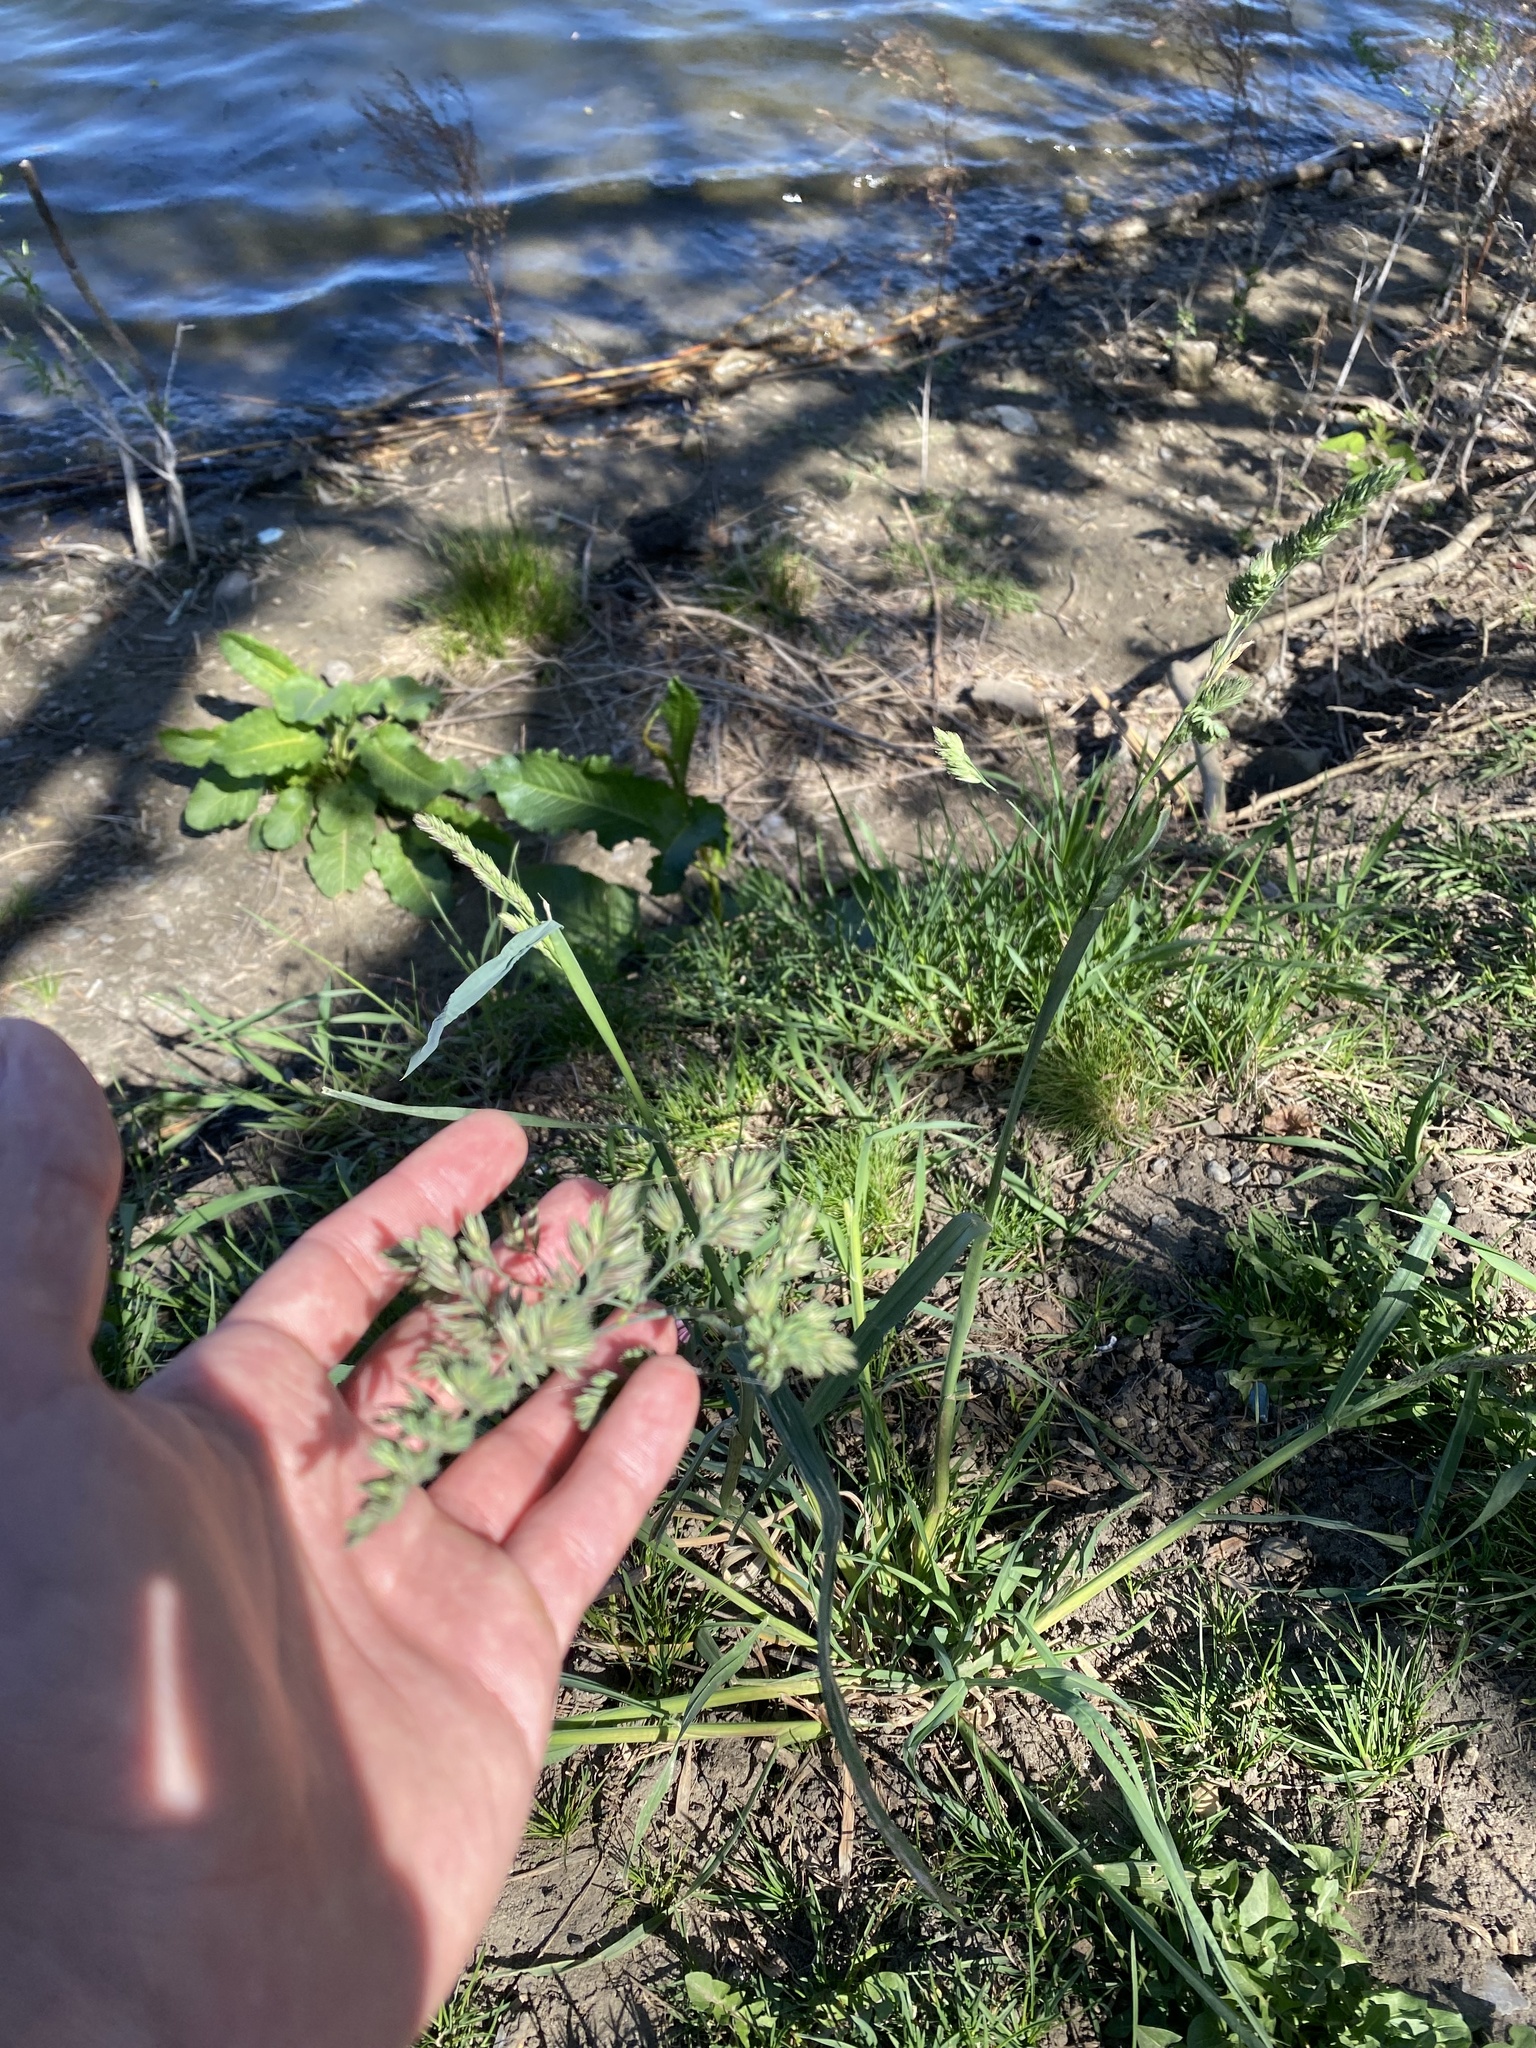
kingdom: Plantae
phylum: Tracheophyta
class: Liliopsida
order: Poales
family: Poaceae
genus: Dactylis
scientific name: Dactylis glomerata
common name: Orchardgrass
